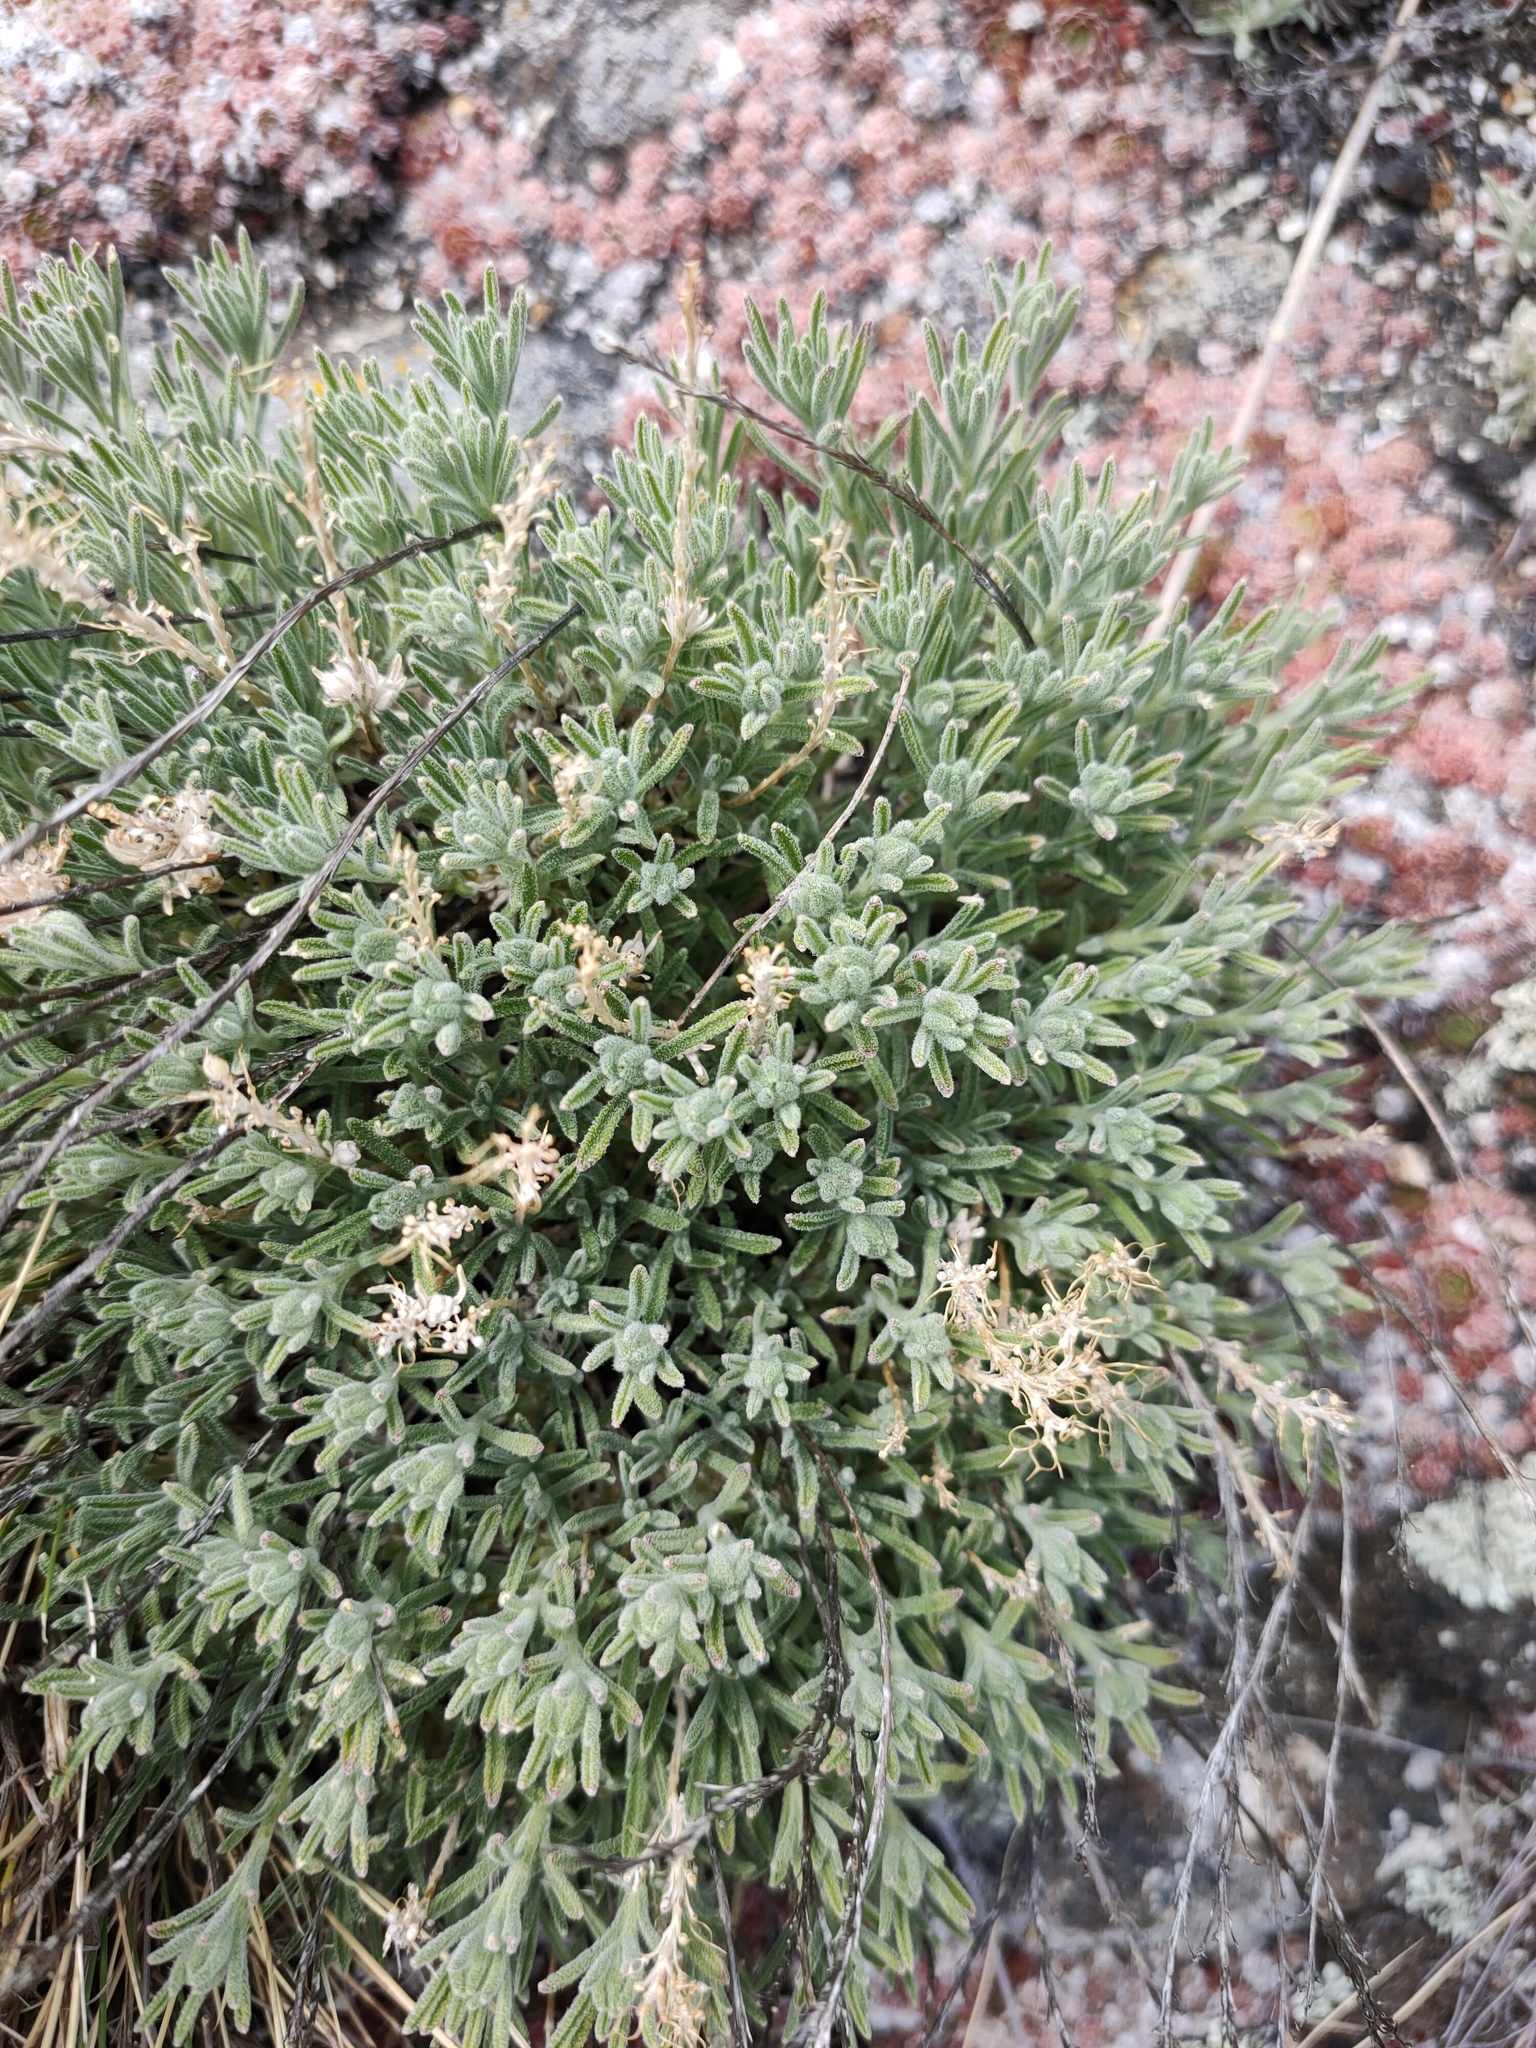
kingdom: Plantae
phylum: Tracheophyta
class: Magnoliopsida
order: Brassicales
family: Brassicaceae
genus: Stevenia
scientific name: Stevenia tenuifolia
